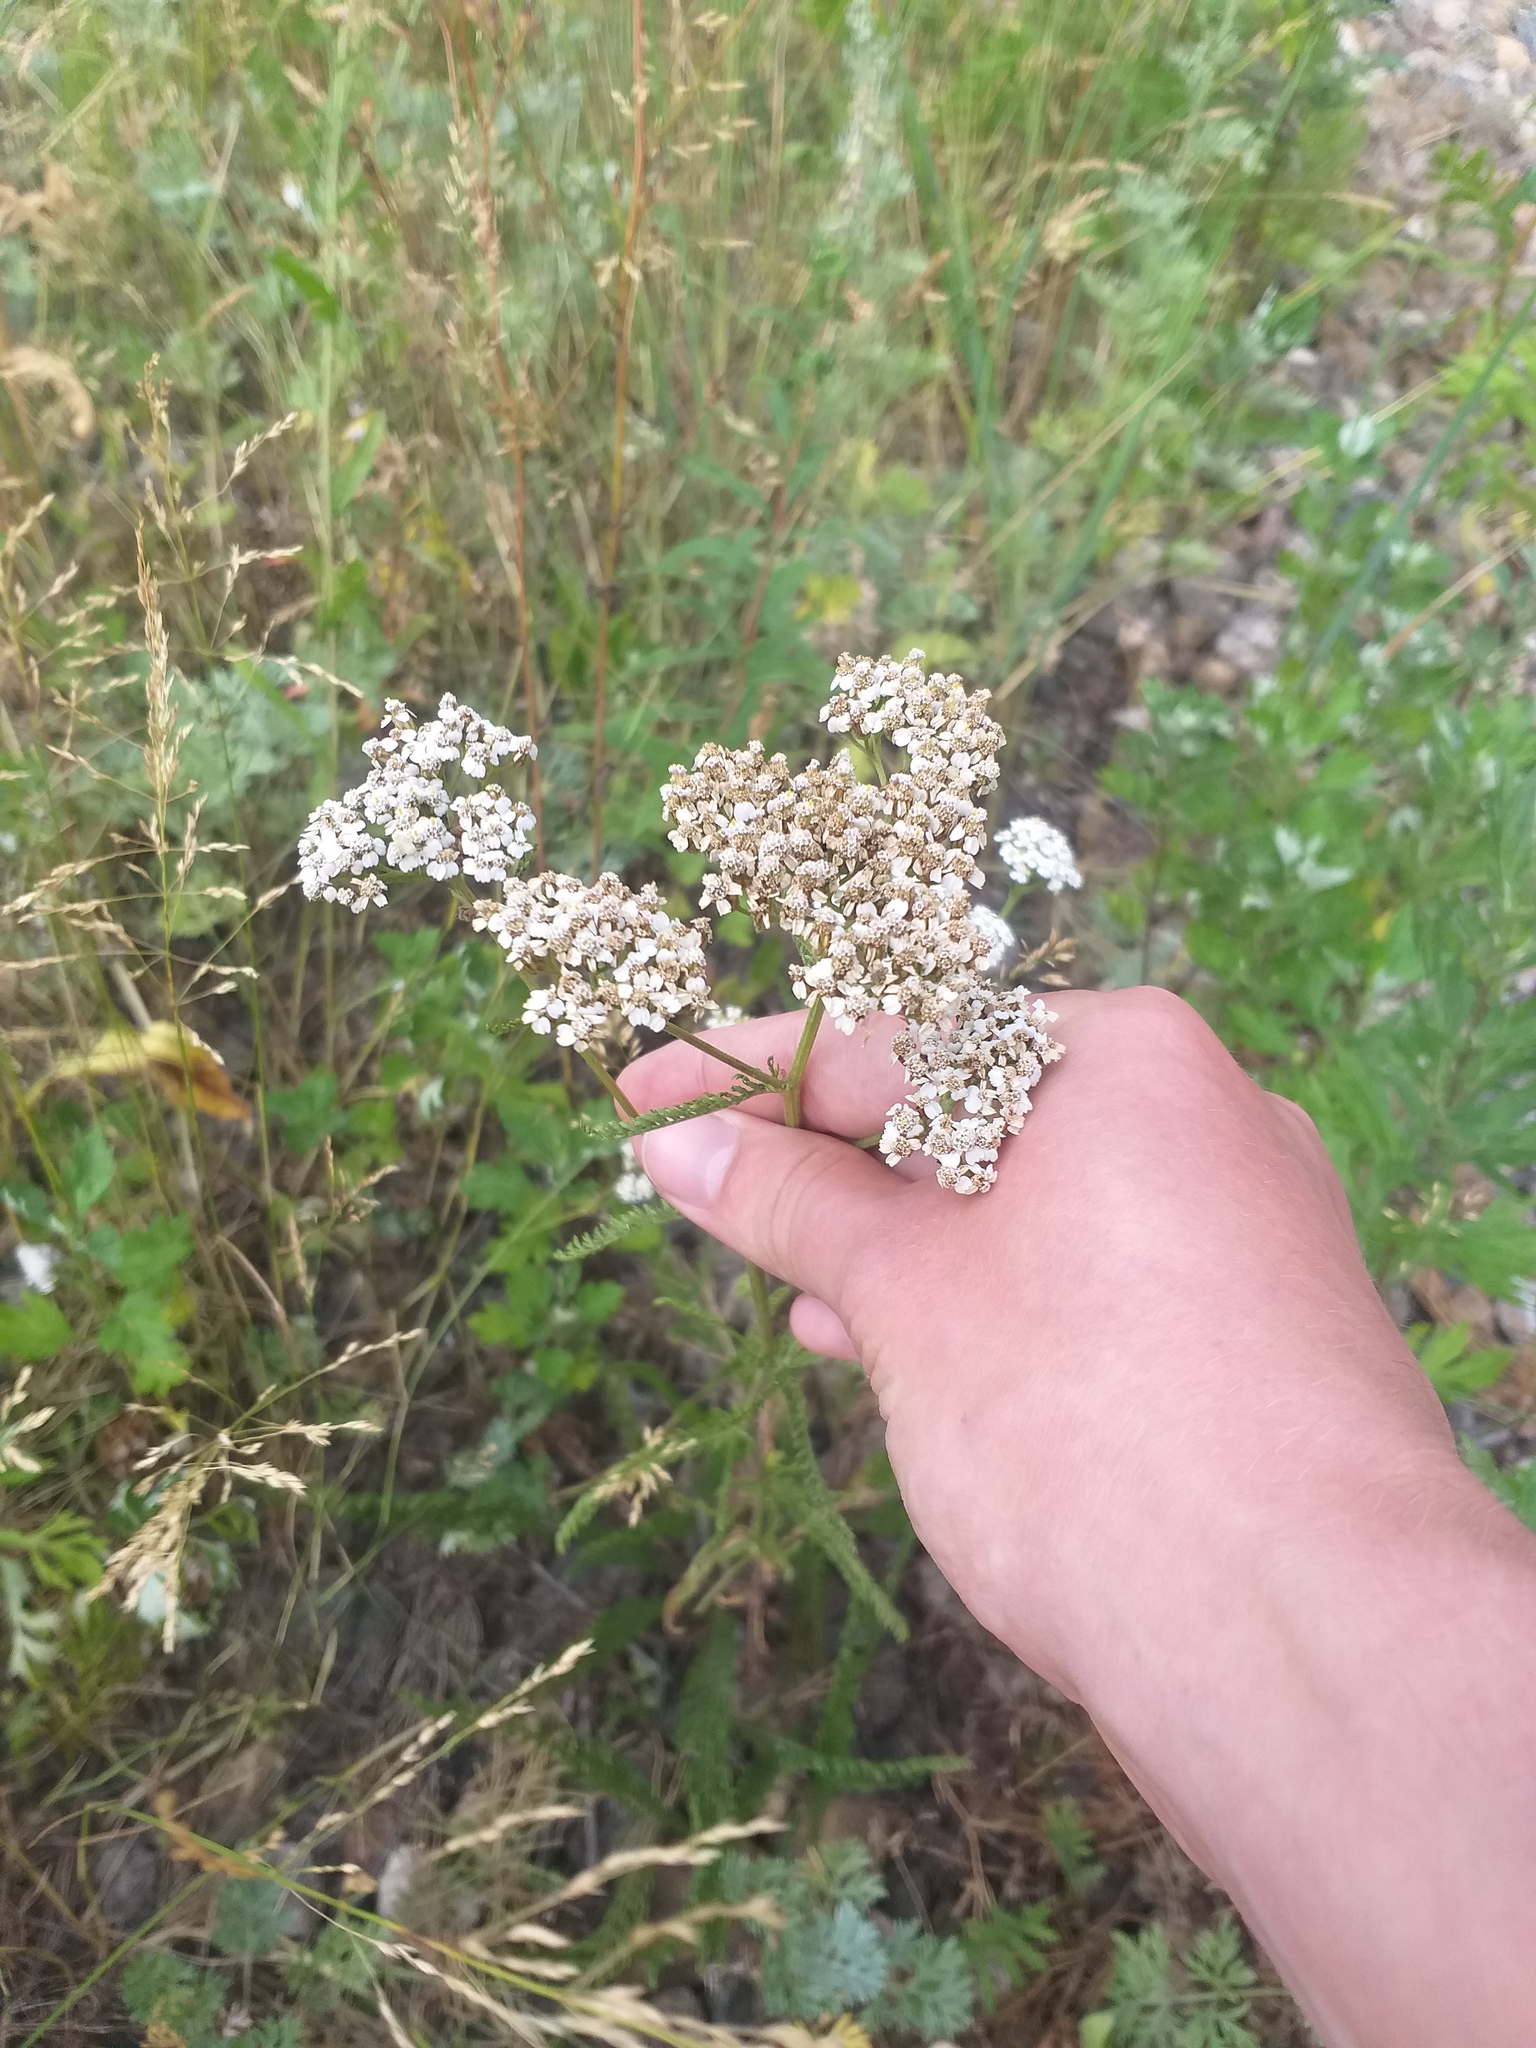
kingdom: Plantae
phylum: Tracheophyta
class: Magnoliopsida
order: Asterales
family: Asteraceae
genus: Achillea
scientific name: Achillea millefolium
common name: Yarrow
